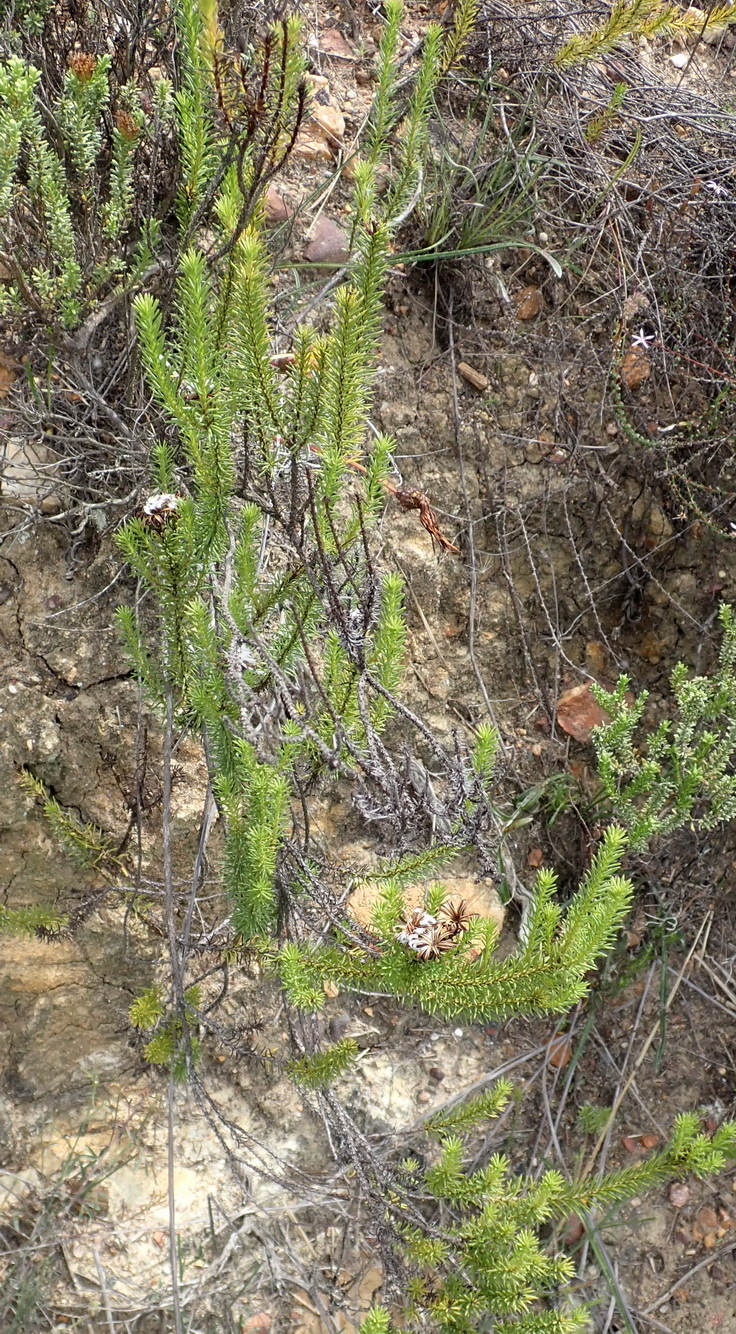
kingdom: Plantae
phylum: Tracheophyta
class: Magnoliopsida
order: Asterales
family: Asteraceae
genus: Senecio
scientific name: Senecio pinifolius
